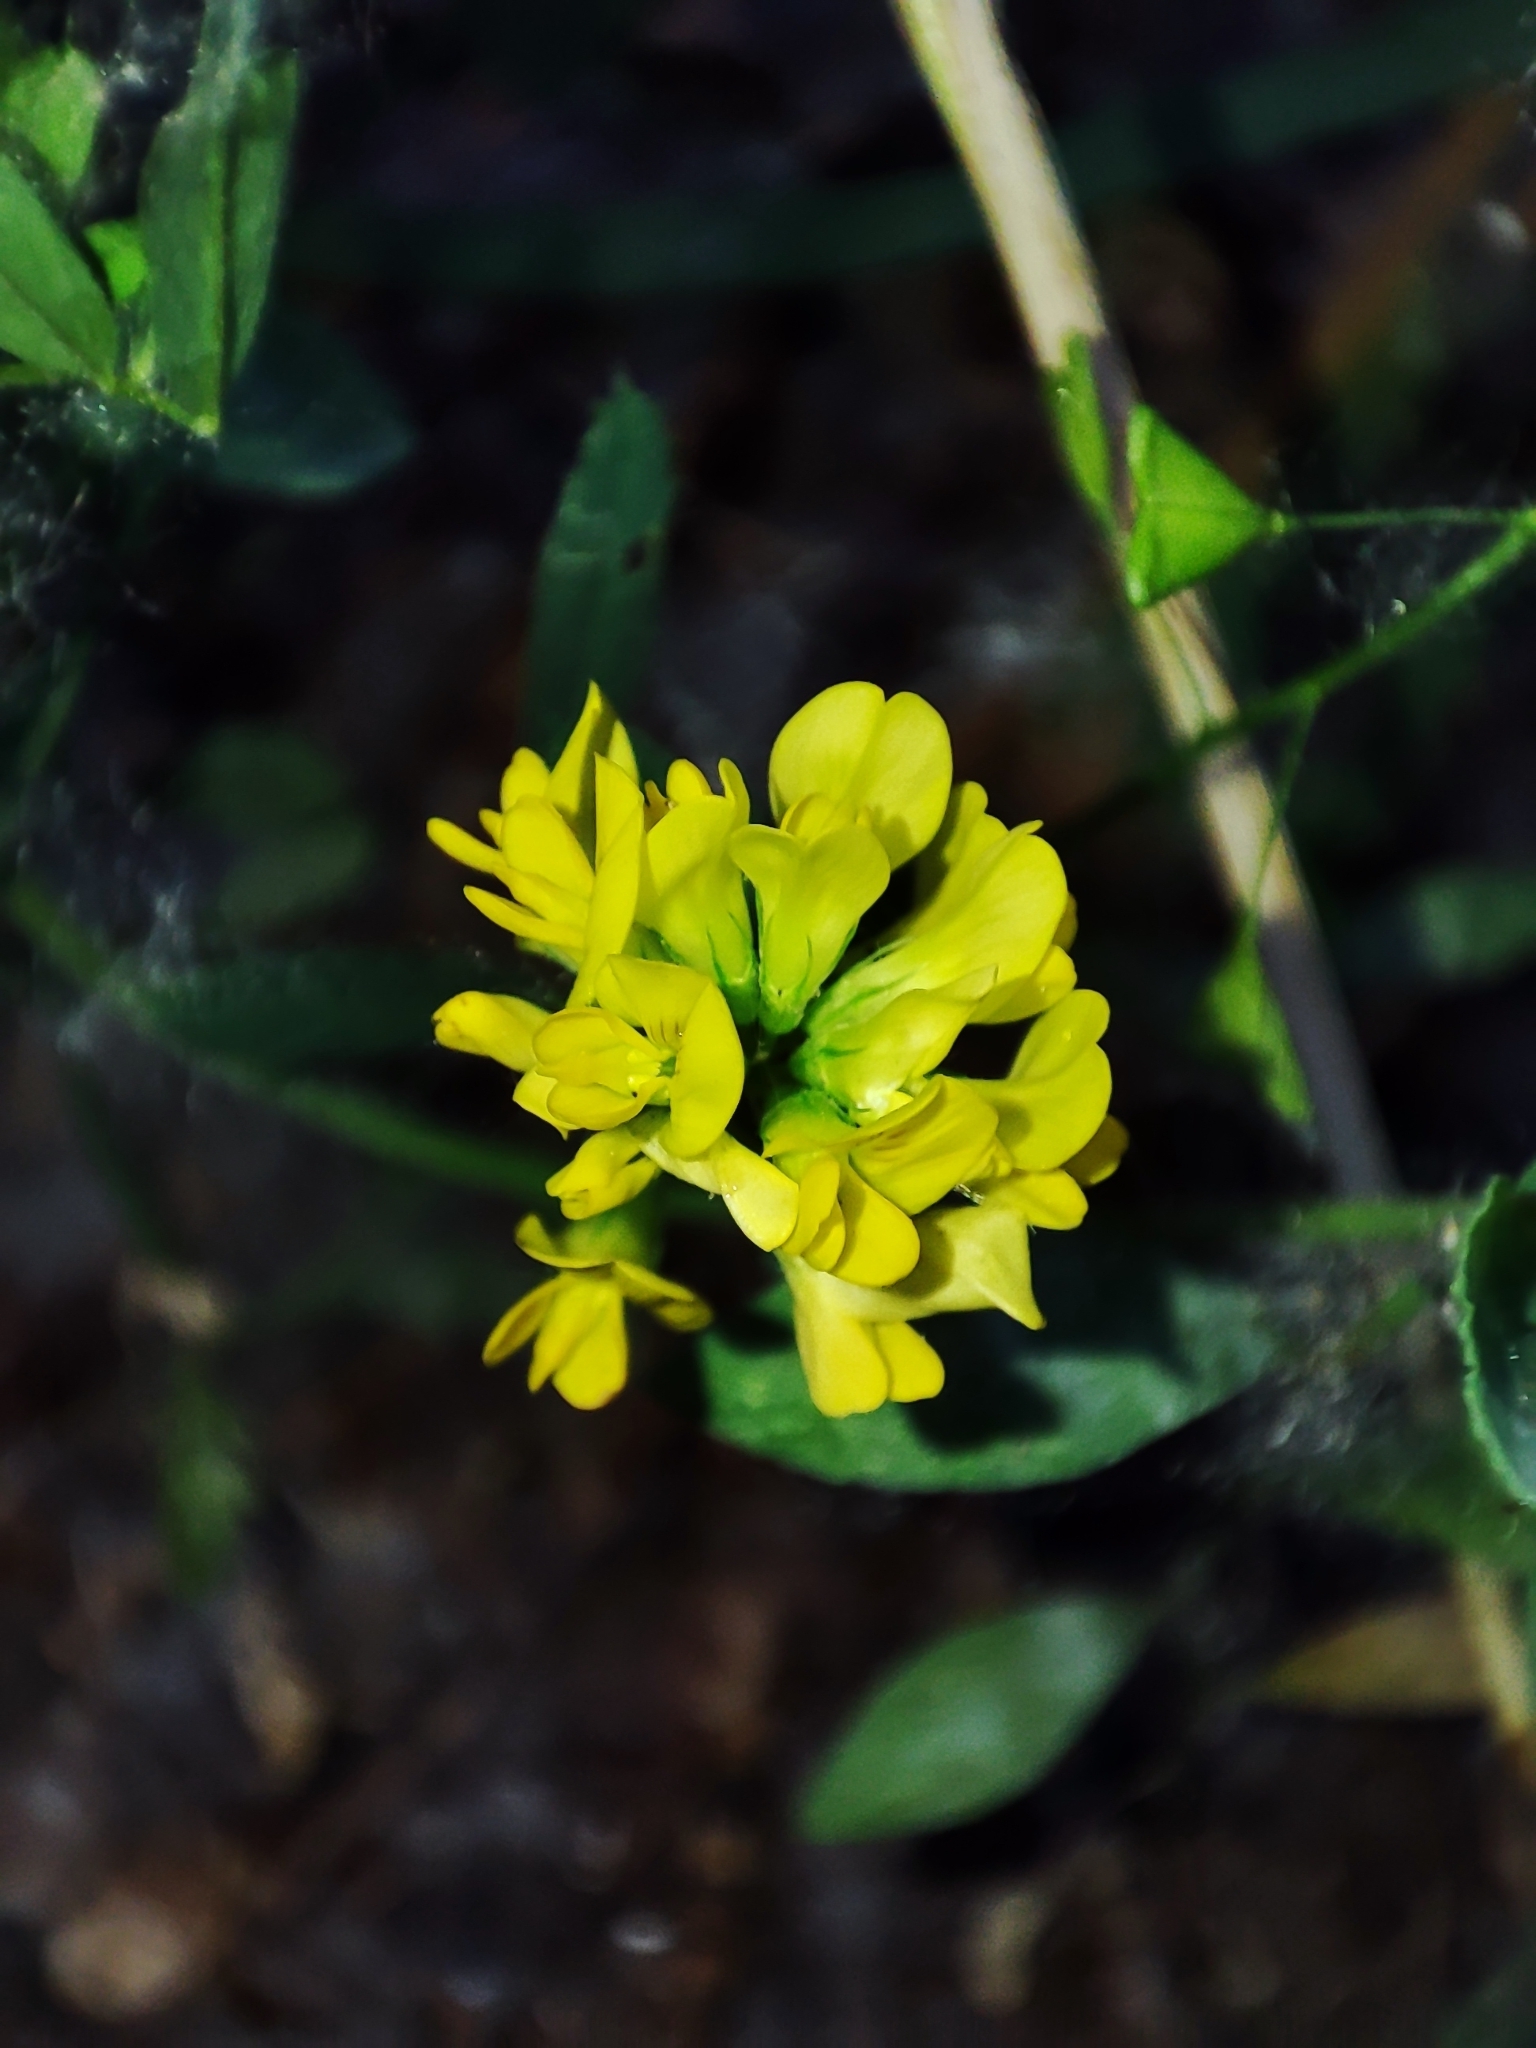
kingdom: Plantae
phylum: Tracheophyta
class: Magnoliopsida
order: Fabales
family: Fabaceae
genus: Medicago
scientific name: Medicago falcata
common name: Sickle medick
